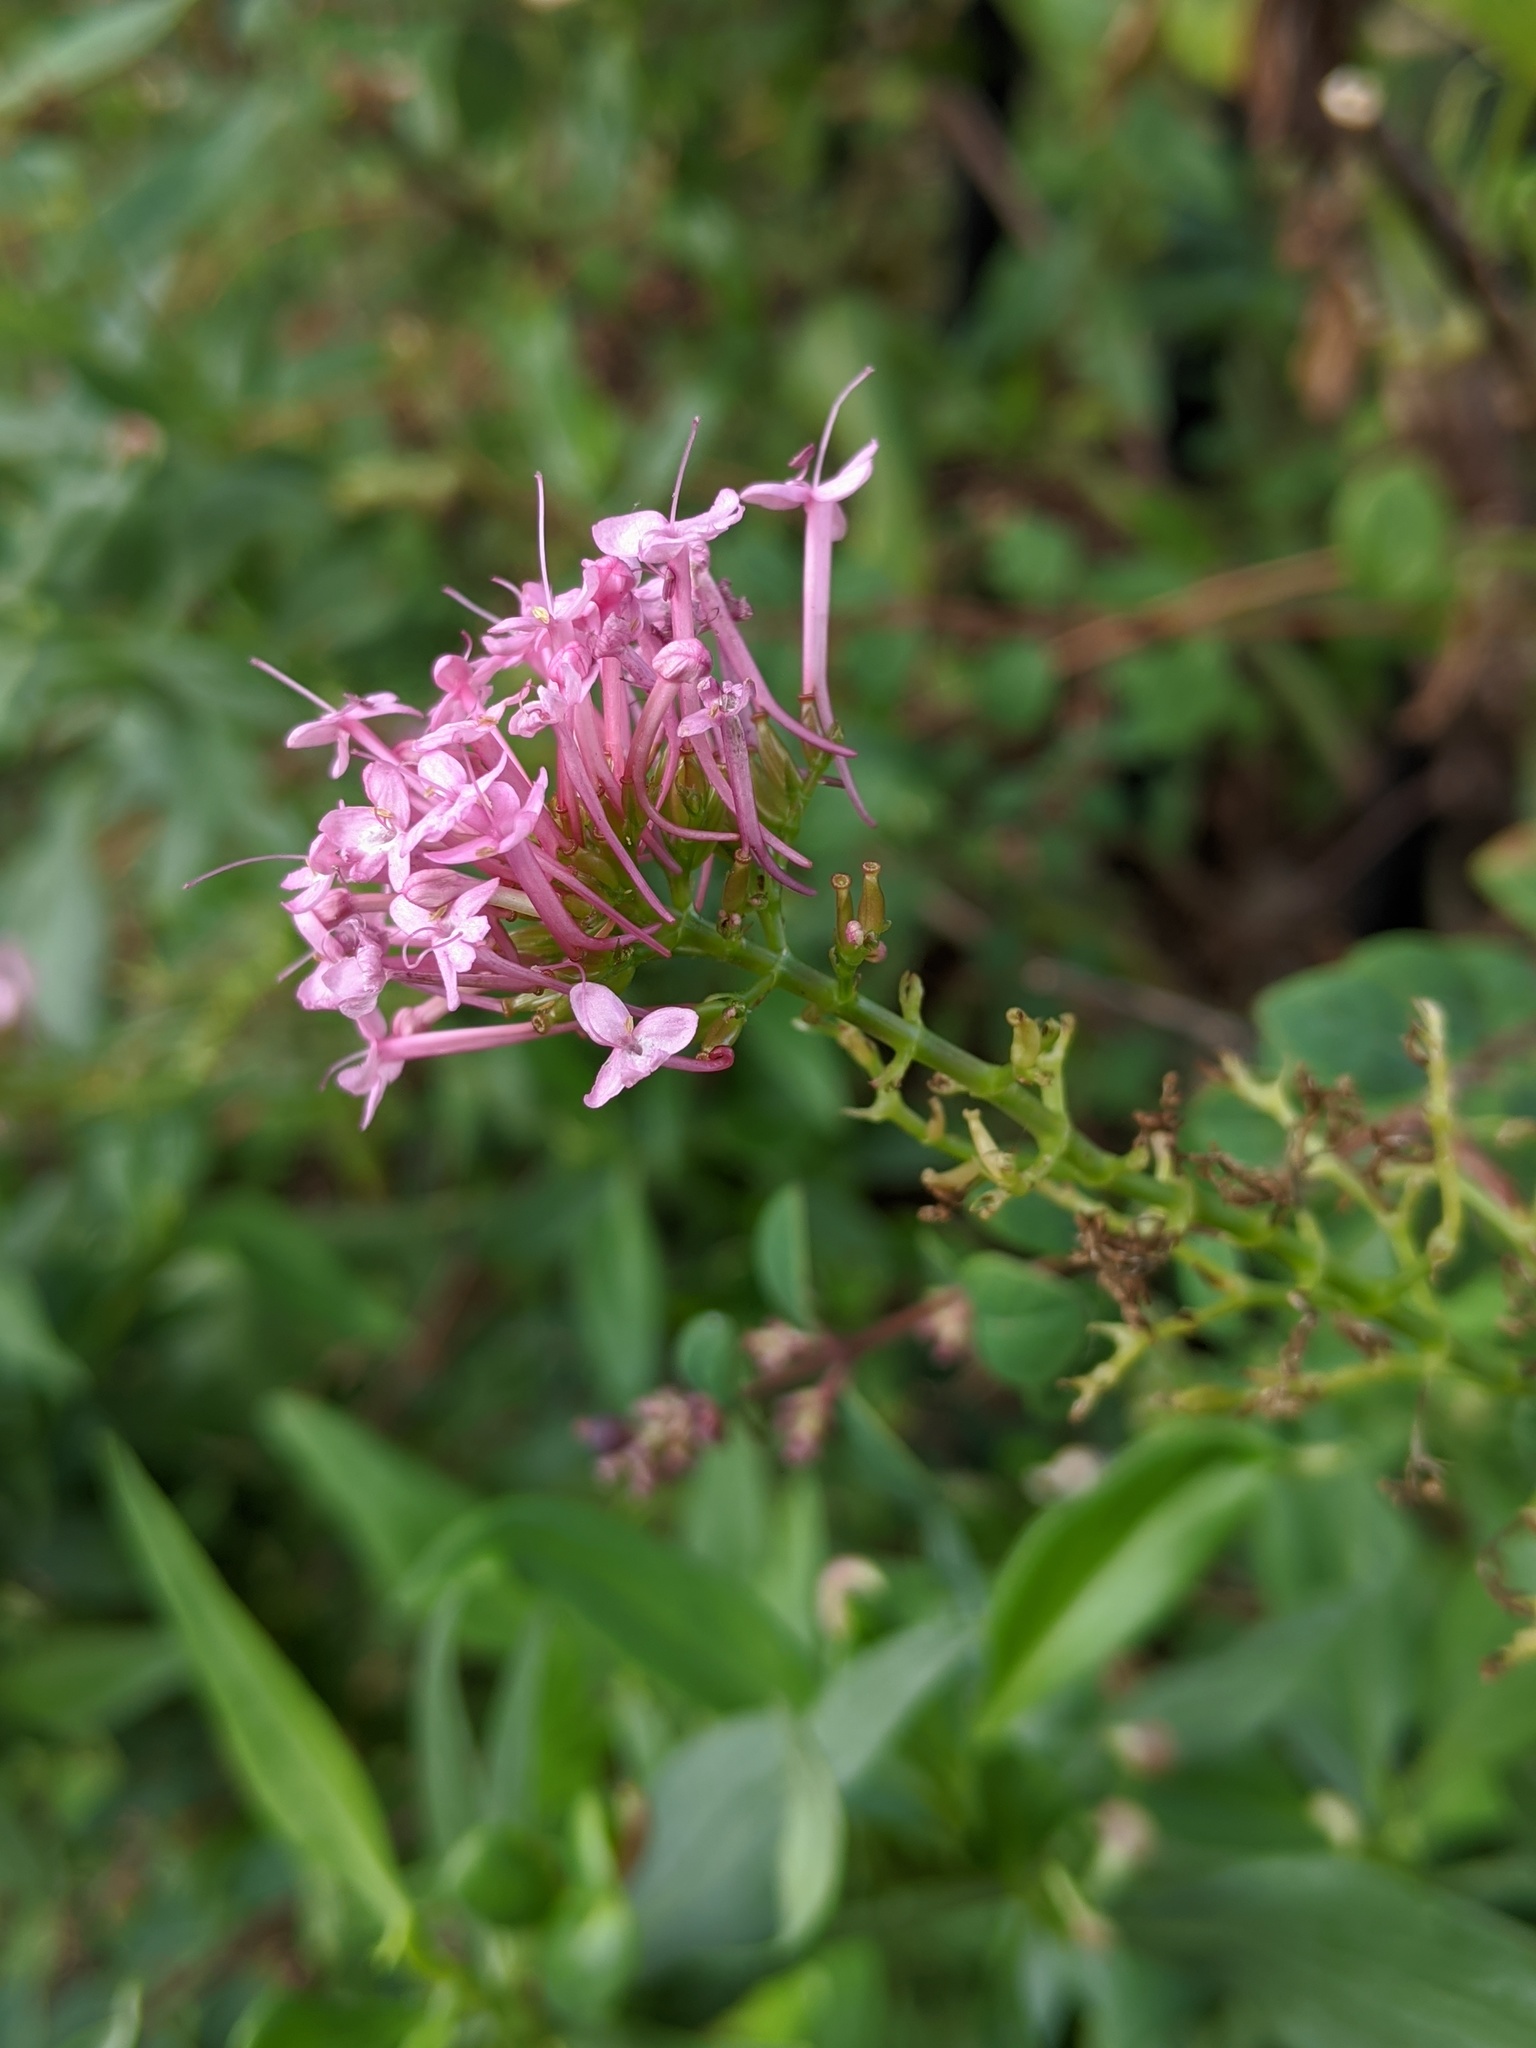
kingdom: Plantae
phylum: Tracheophyta
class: Magnoliopsida
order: Dipsacales
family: Caprifoliaceae
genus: Centranthus
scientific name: Centranthus ruber
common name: Red valerian
